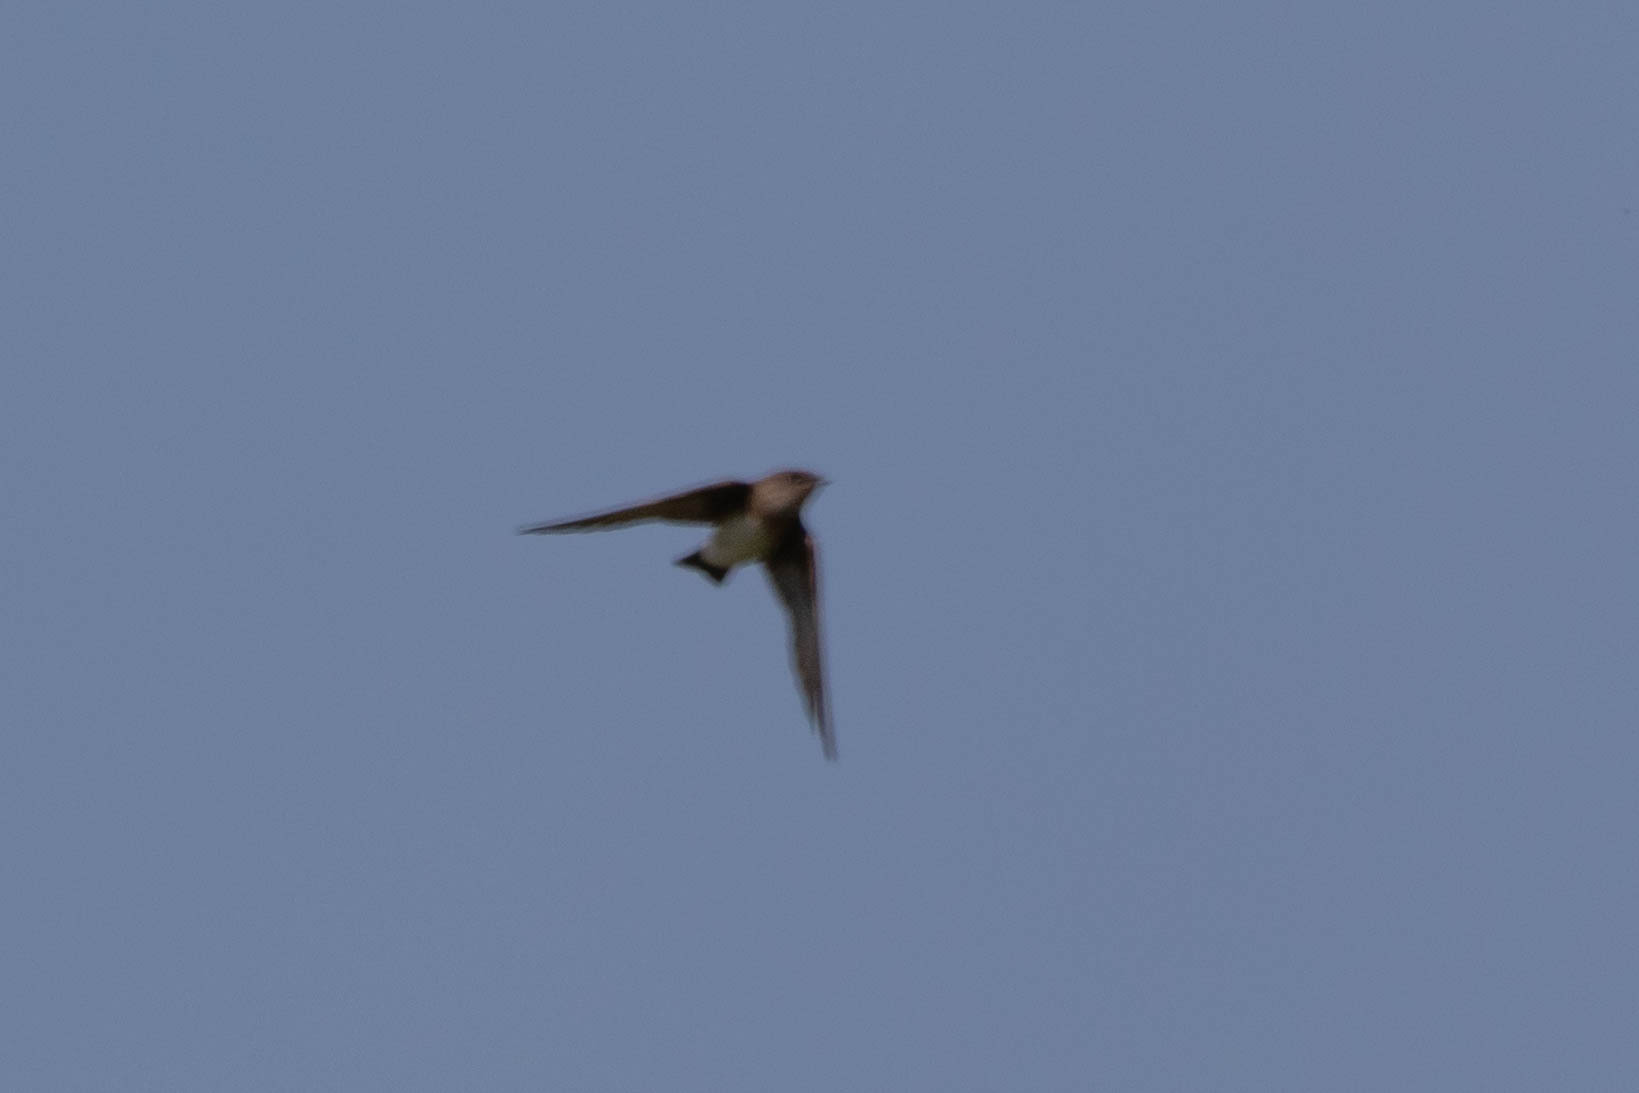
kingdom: Animalia
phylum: Chordata
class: Aves
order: Passeriformes
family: Hirundinidae
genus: Stelgidopteryx
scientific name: Stelgidopteryx serripennis
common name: Northern rough-winged swallow
